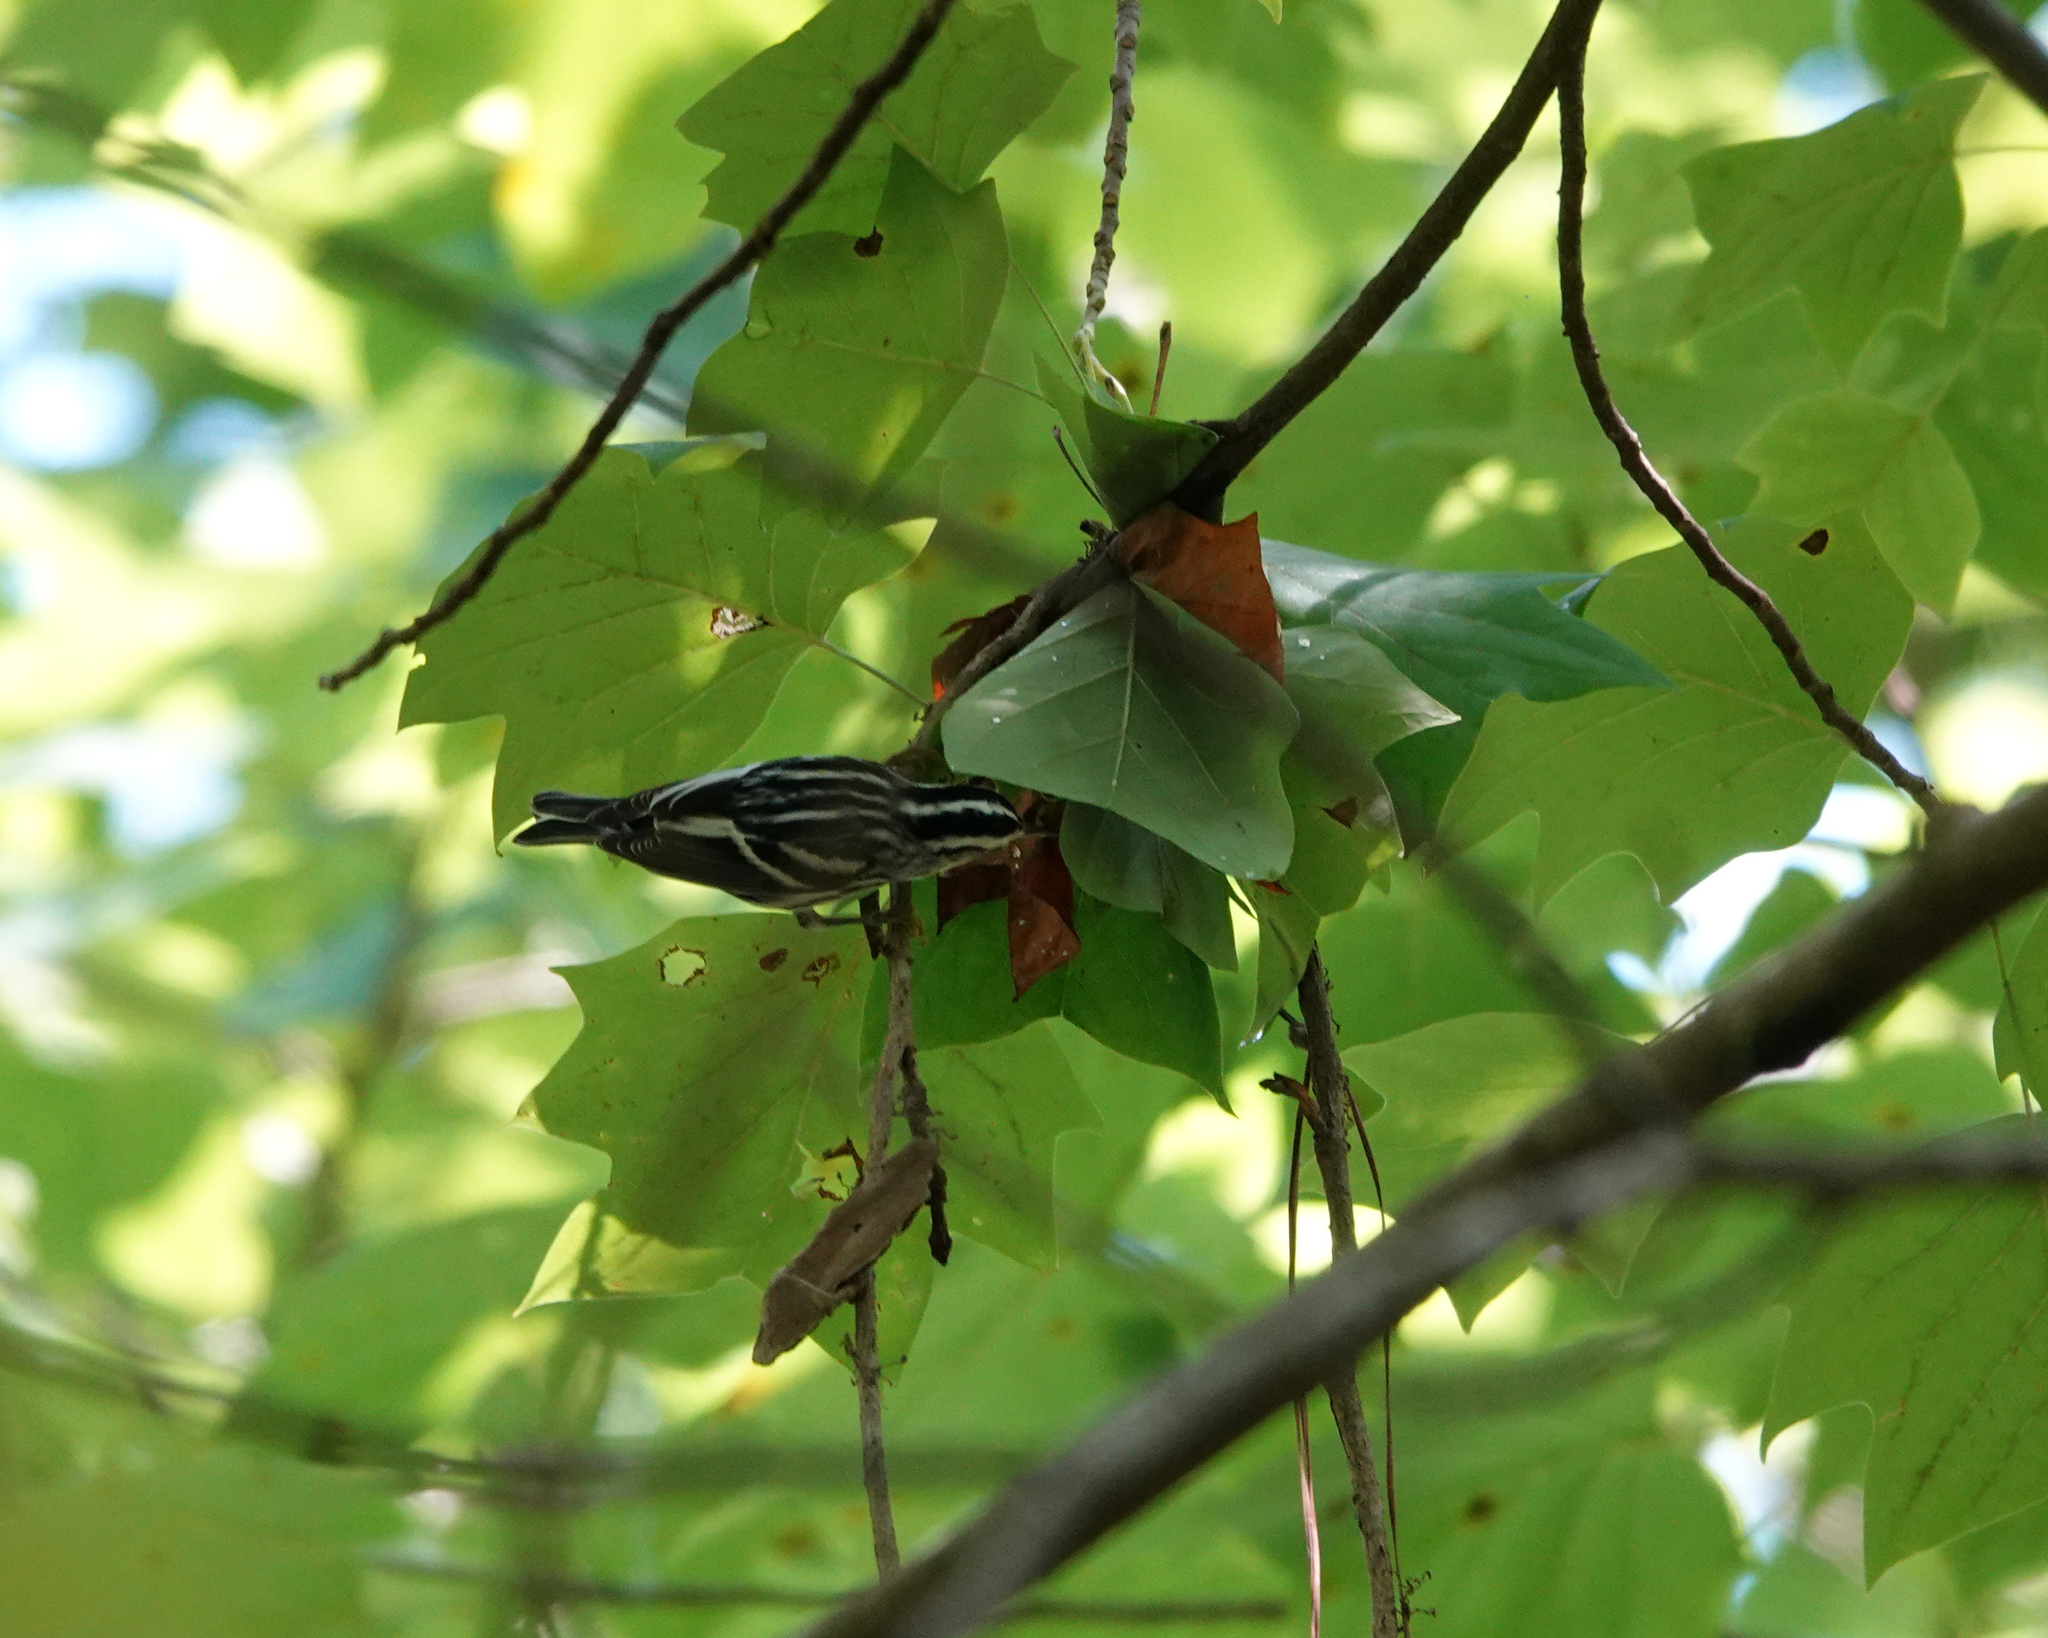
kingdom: Animalia
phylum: Chordata
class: Aves
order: Passeriformes
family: Parulidae
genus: Mniotilta
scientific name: Mniotilta varia
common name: Black-and-white warbler
